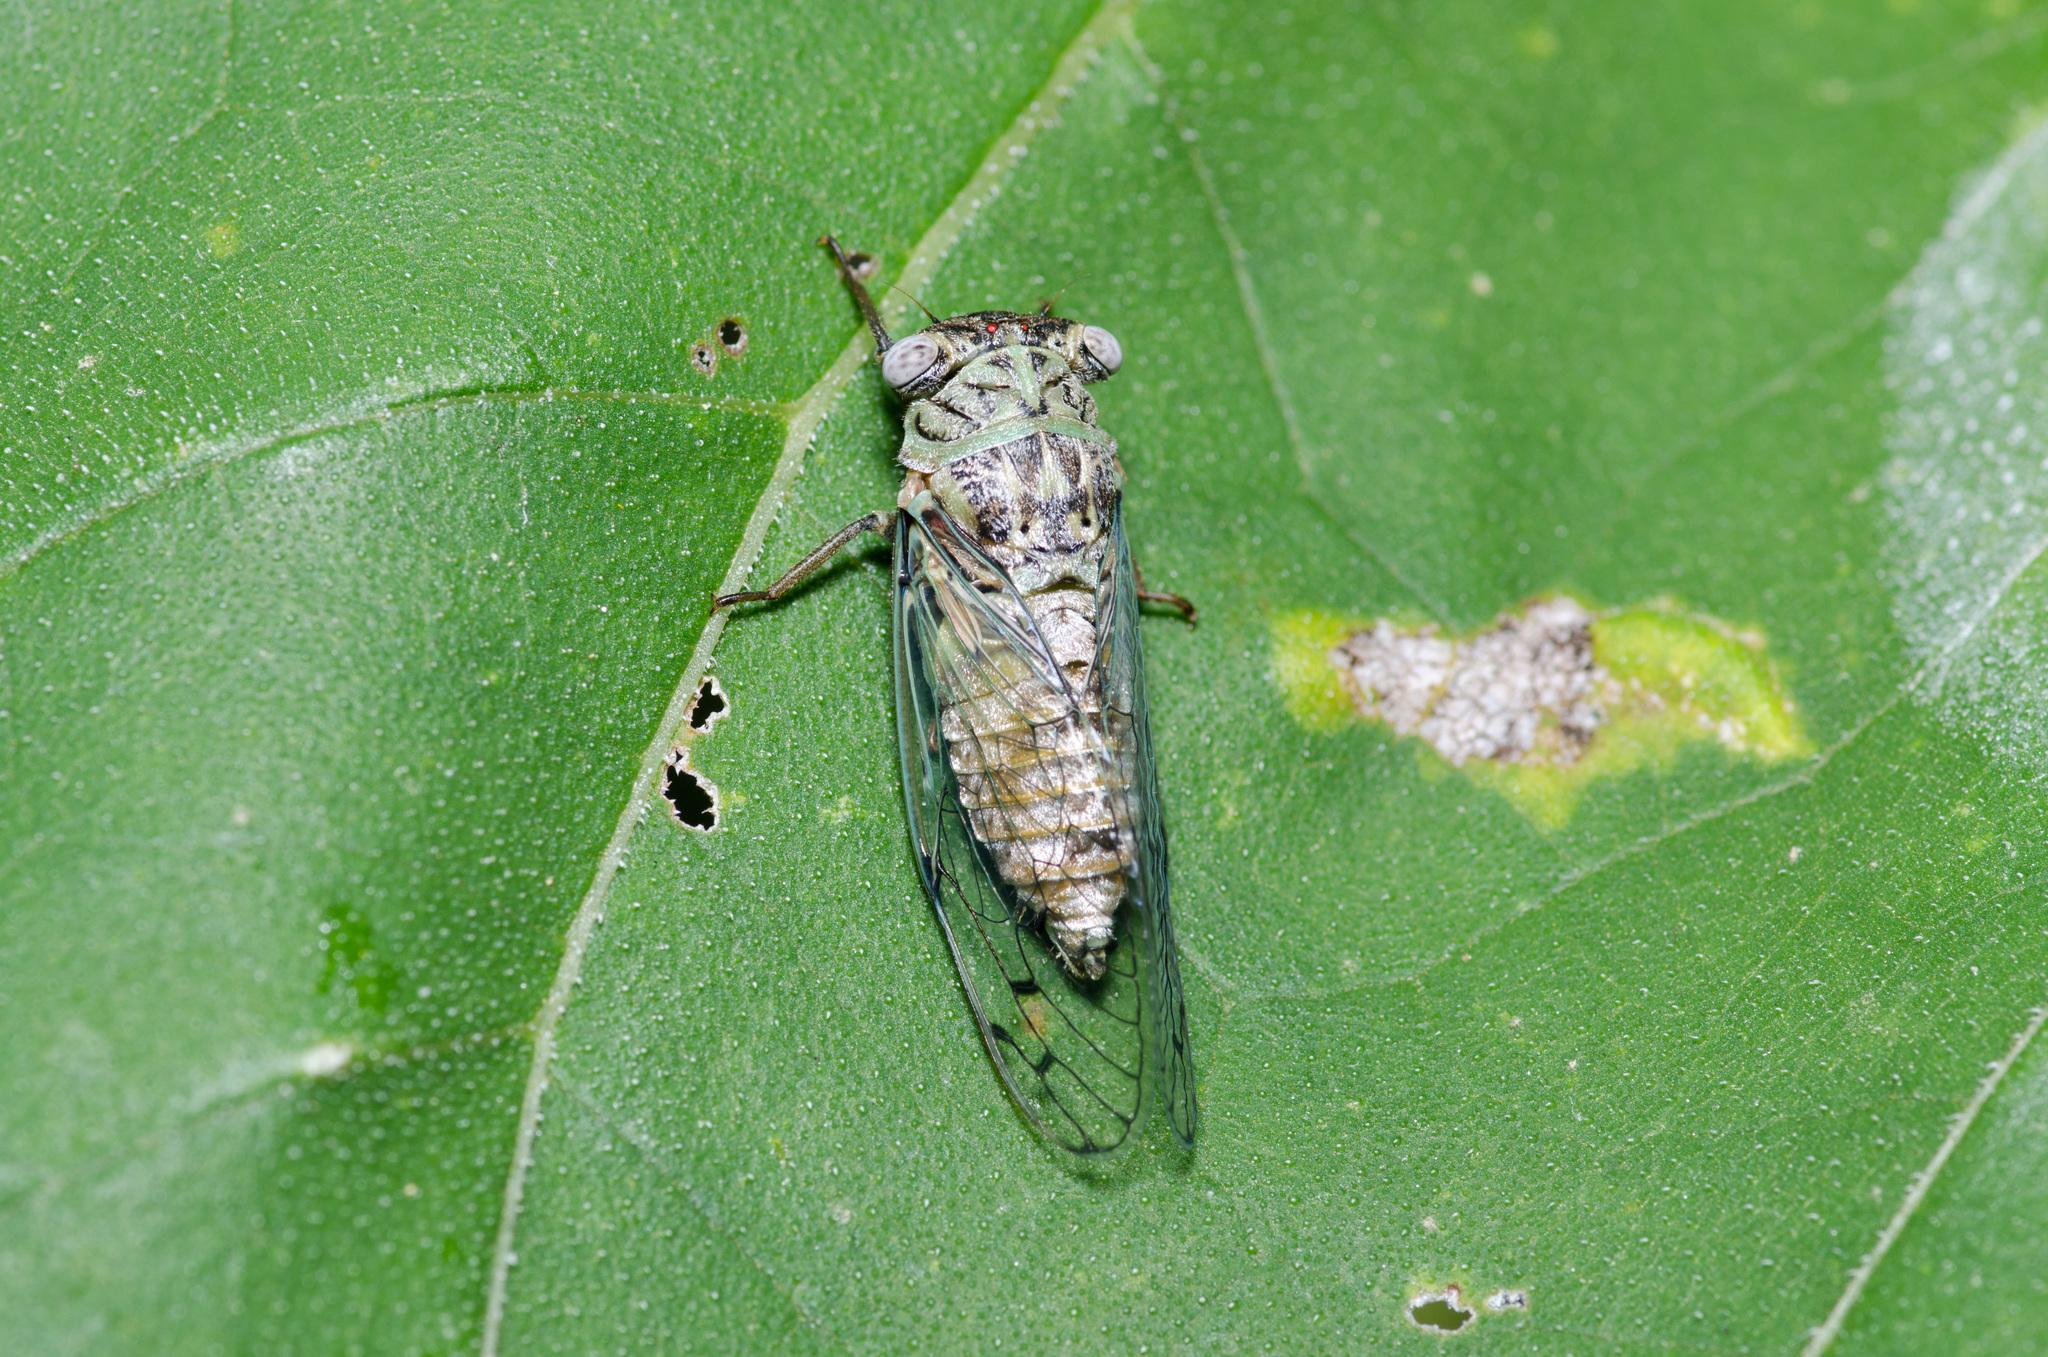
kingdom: Animalia
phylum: Arthropoda
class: Insecta
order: Hemiptera
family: Cicadidae
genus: Pacarina
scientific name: Pacarina puella
